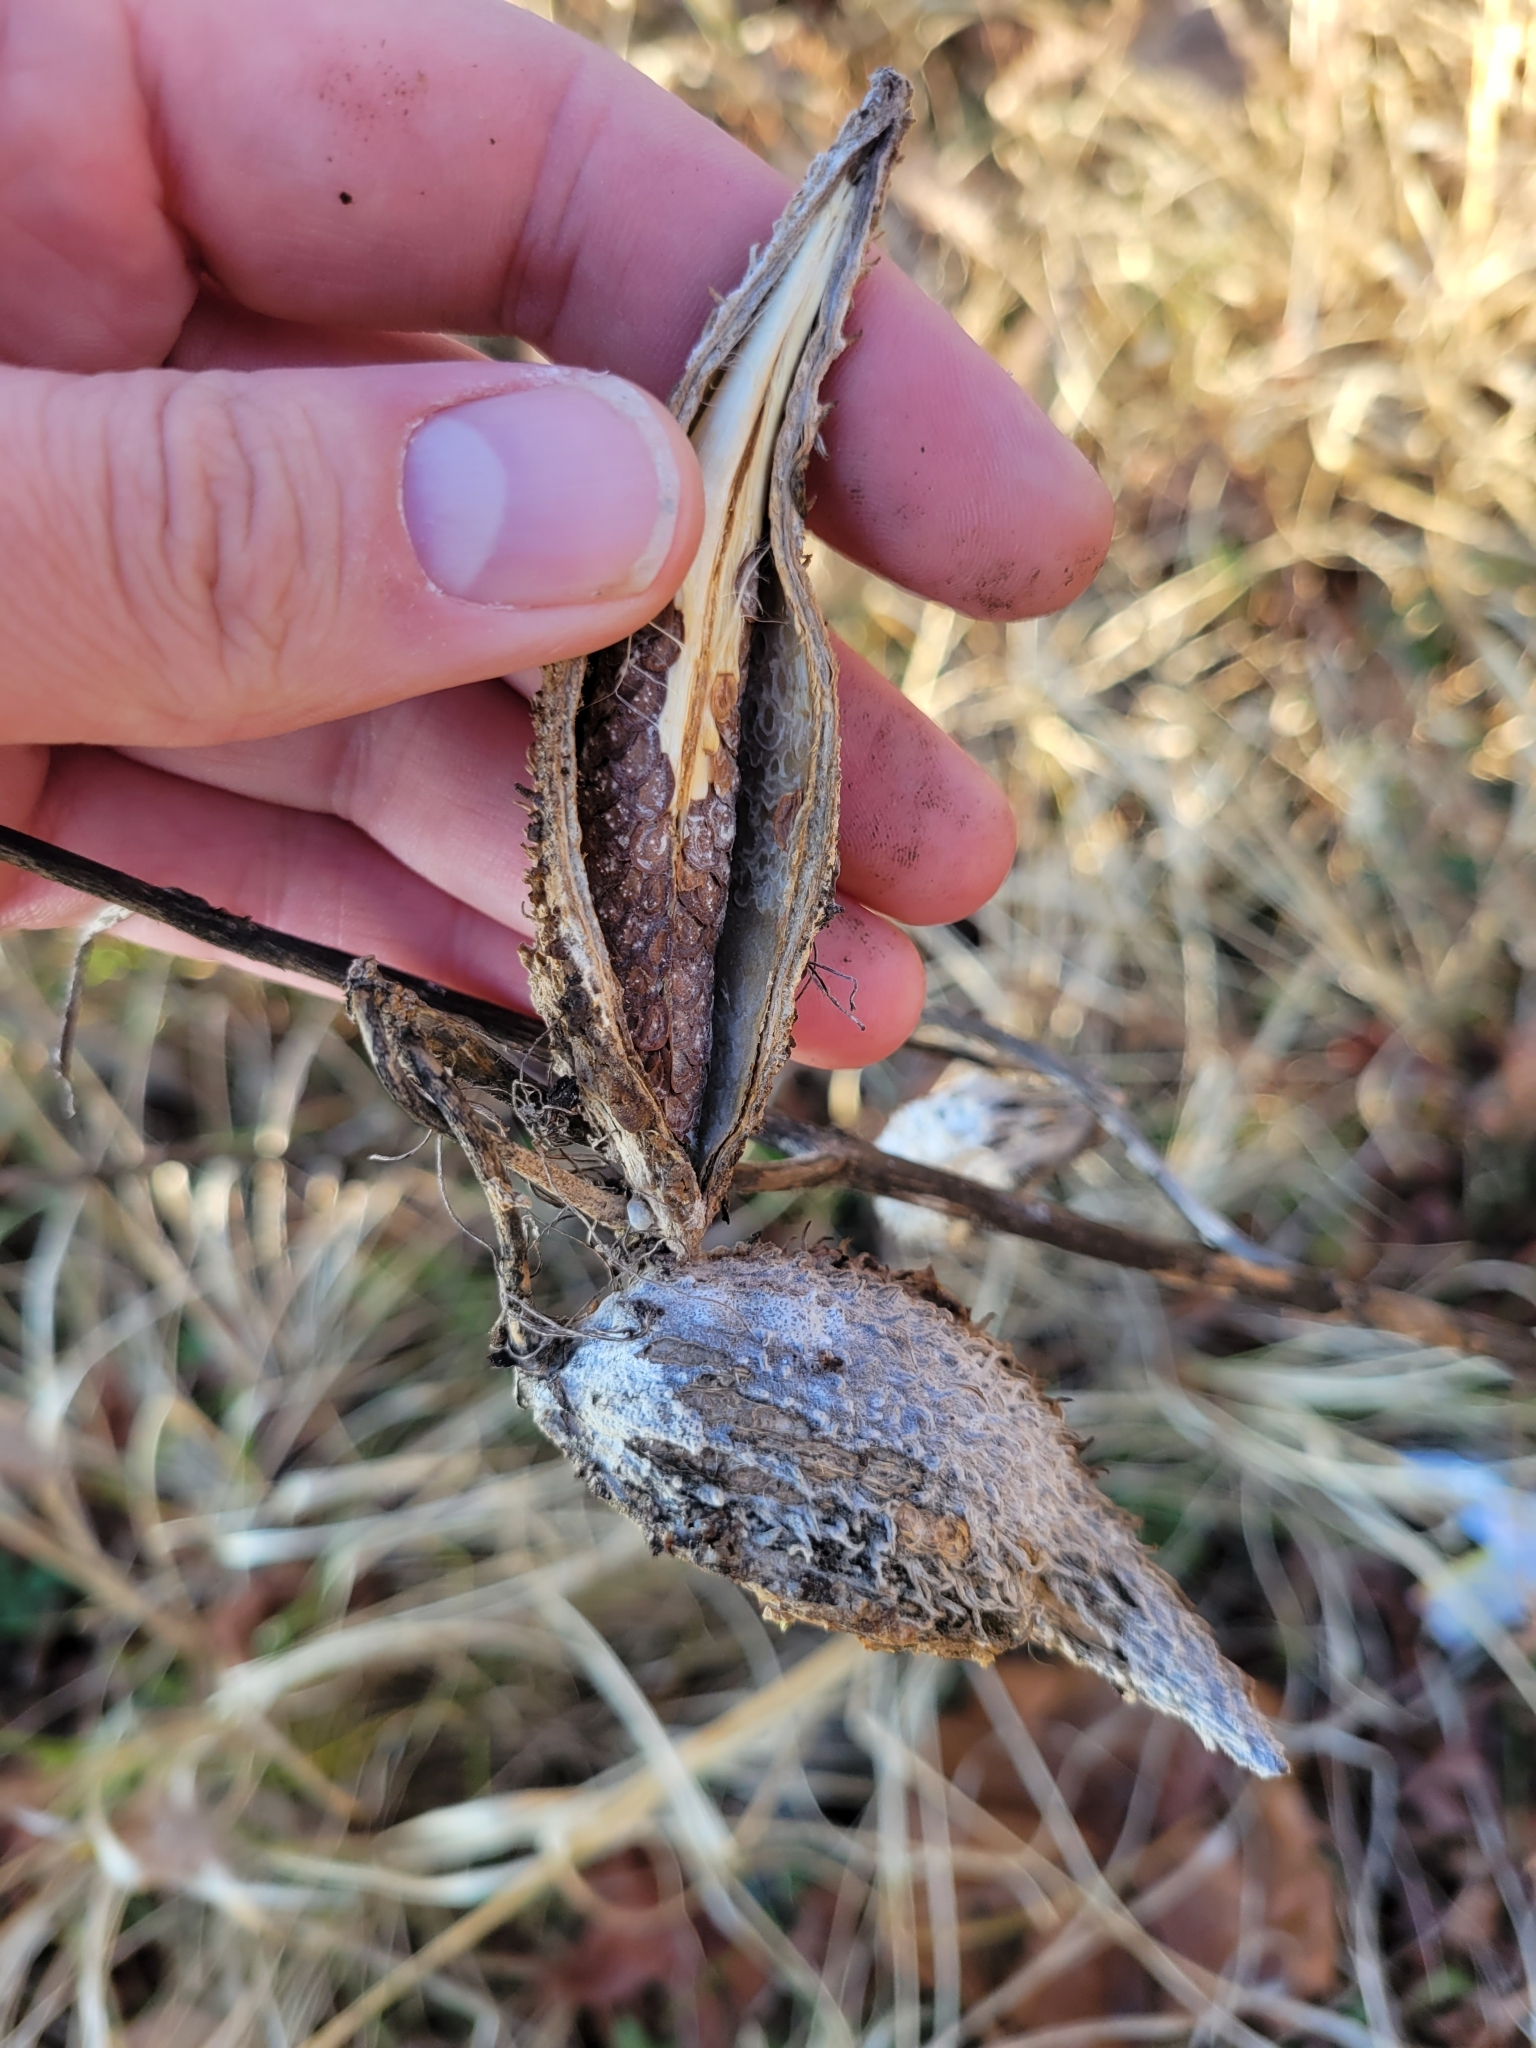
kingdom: Plantae
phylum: Tracheophyta
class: Magnoliopsida
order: Gentianales
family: Apocynaceae
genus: Asclepias
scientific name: Asclepias syriaca
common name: Common milkweed
